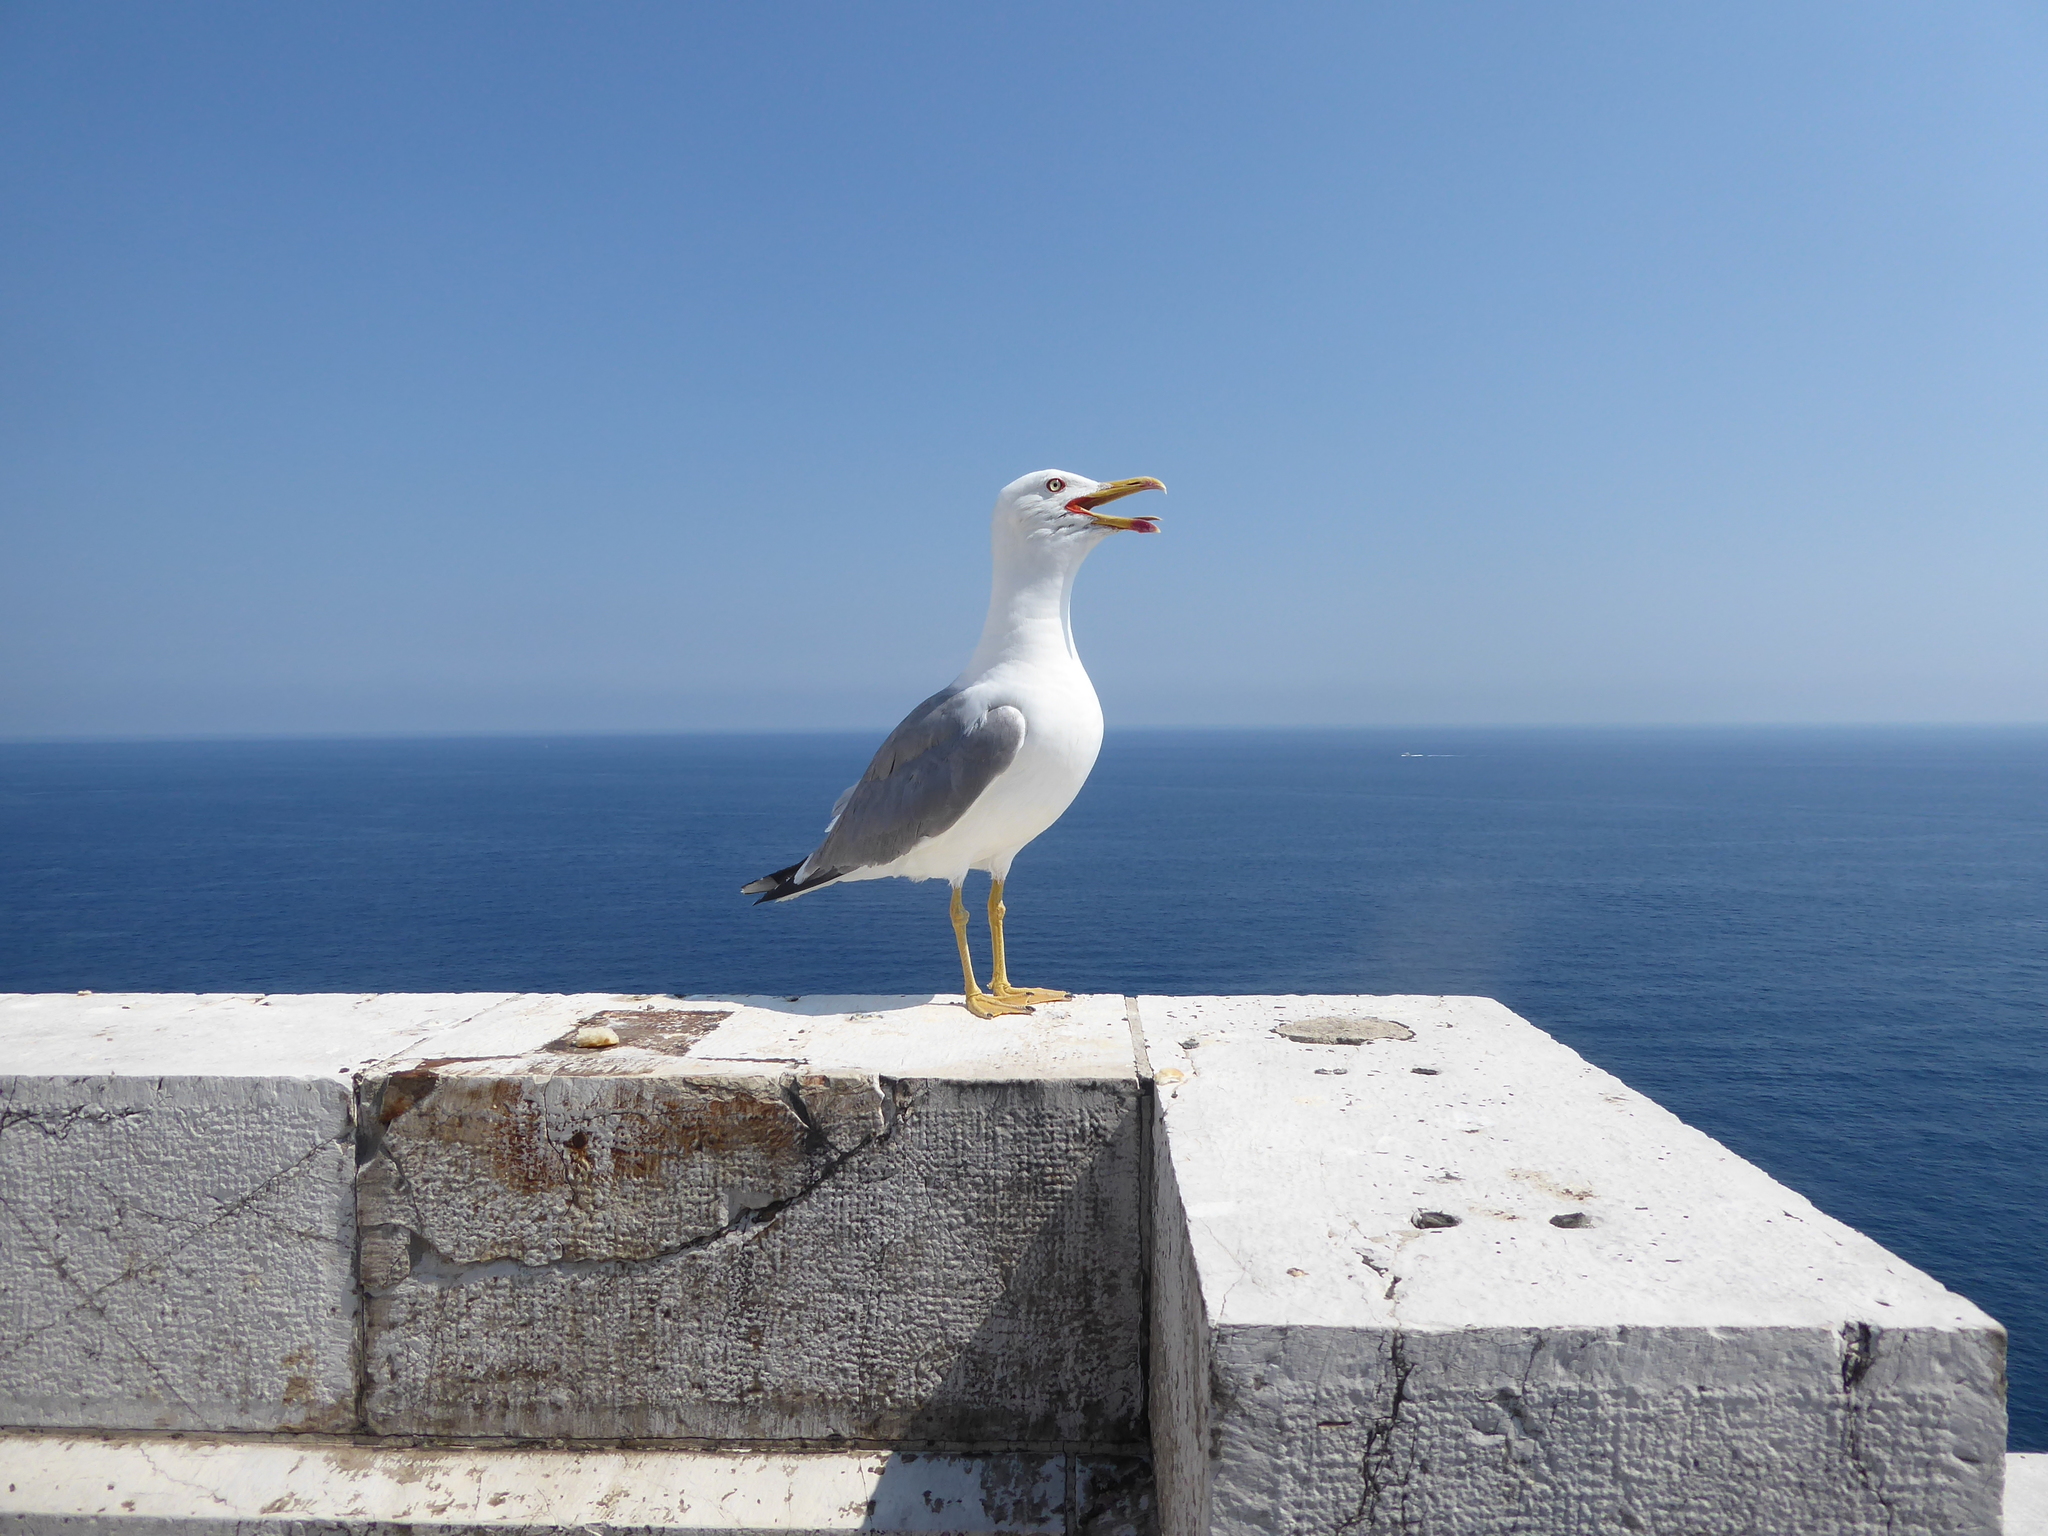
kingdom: Animalia
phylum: Chordata
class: Aves
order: Charadriiformes
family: Laridae
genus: Larus
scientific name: Larus michahellis
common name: Yellow-legged gull
